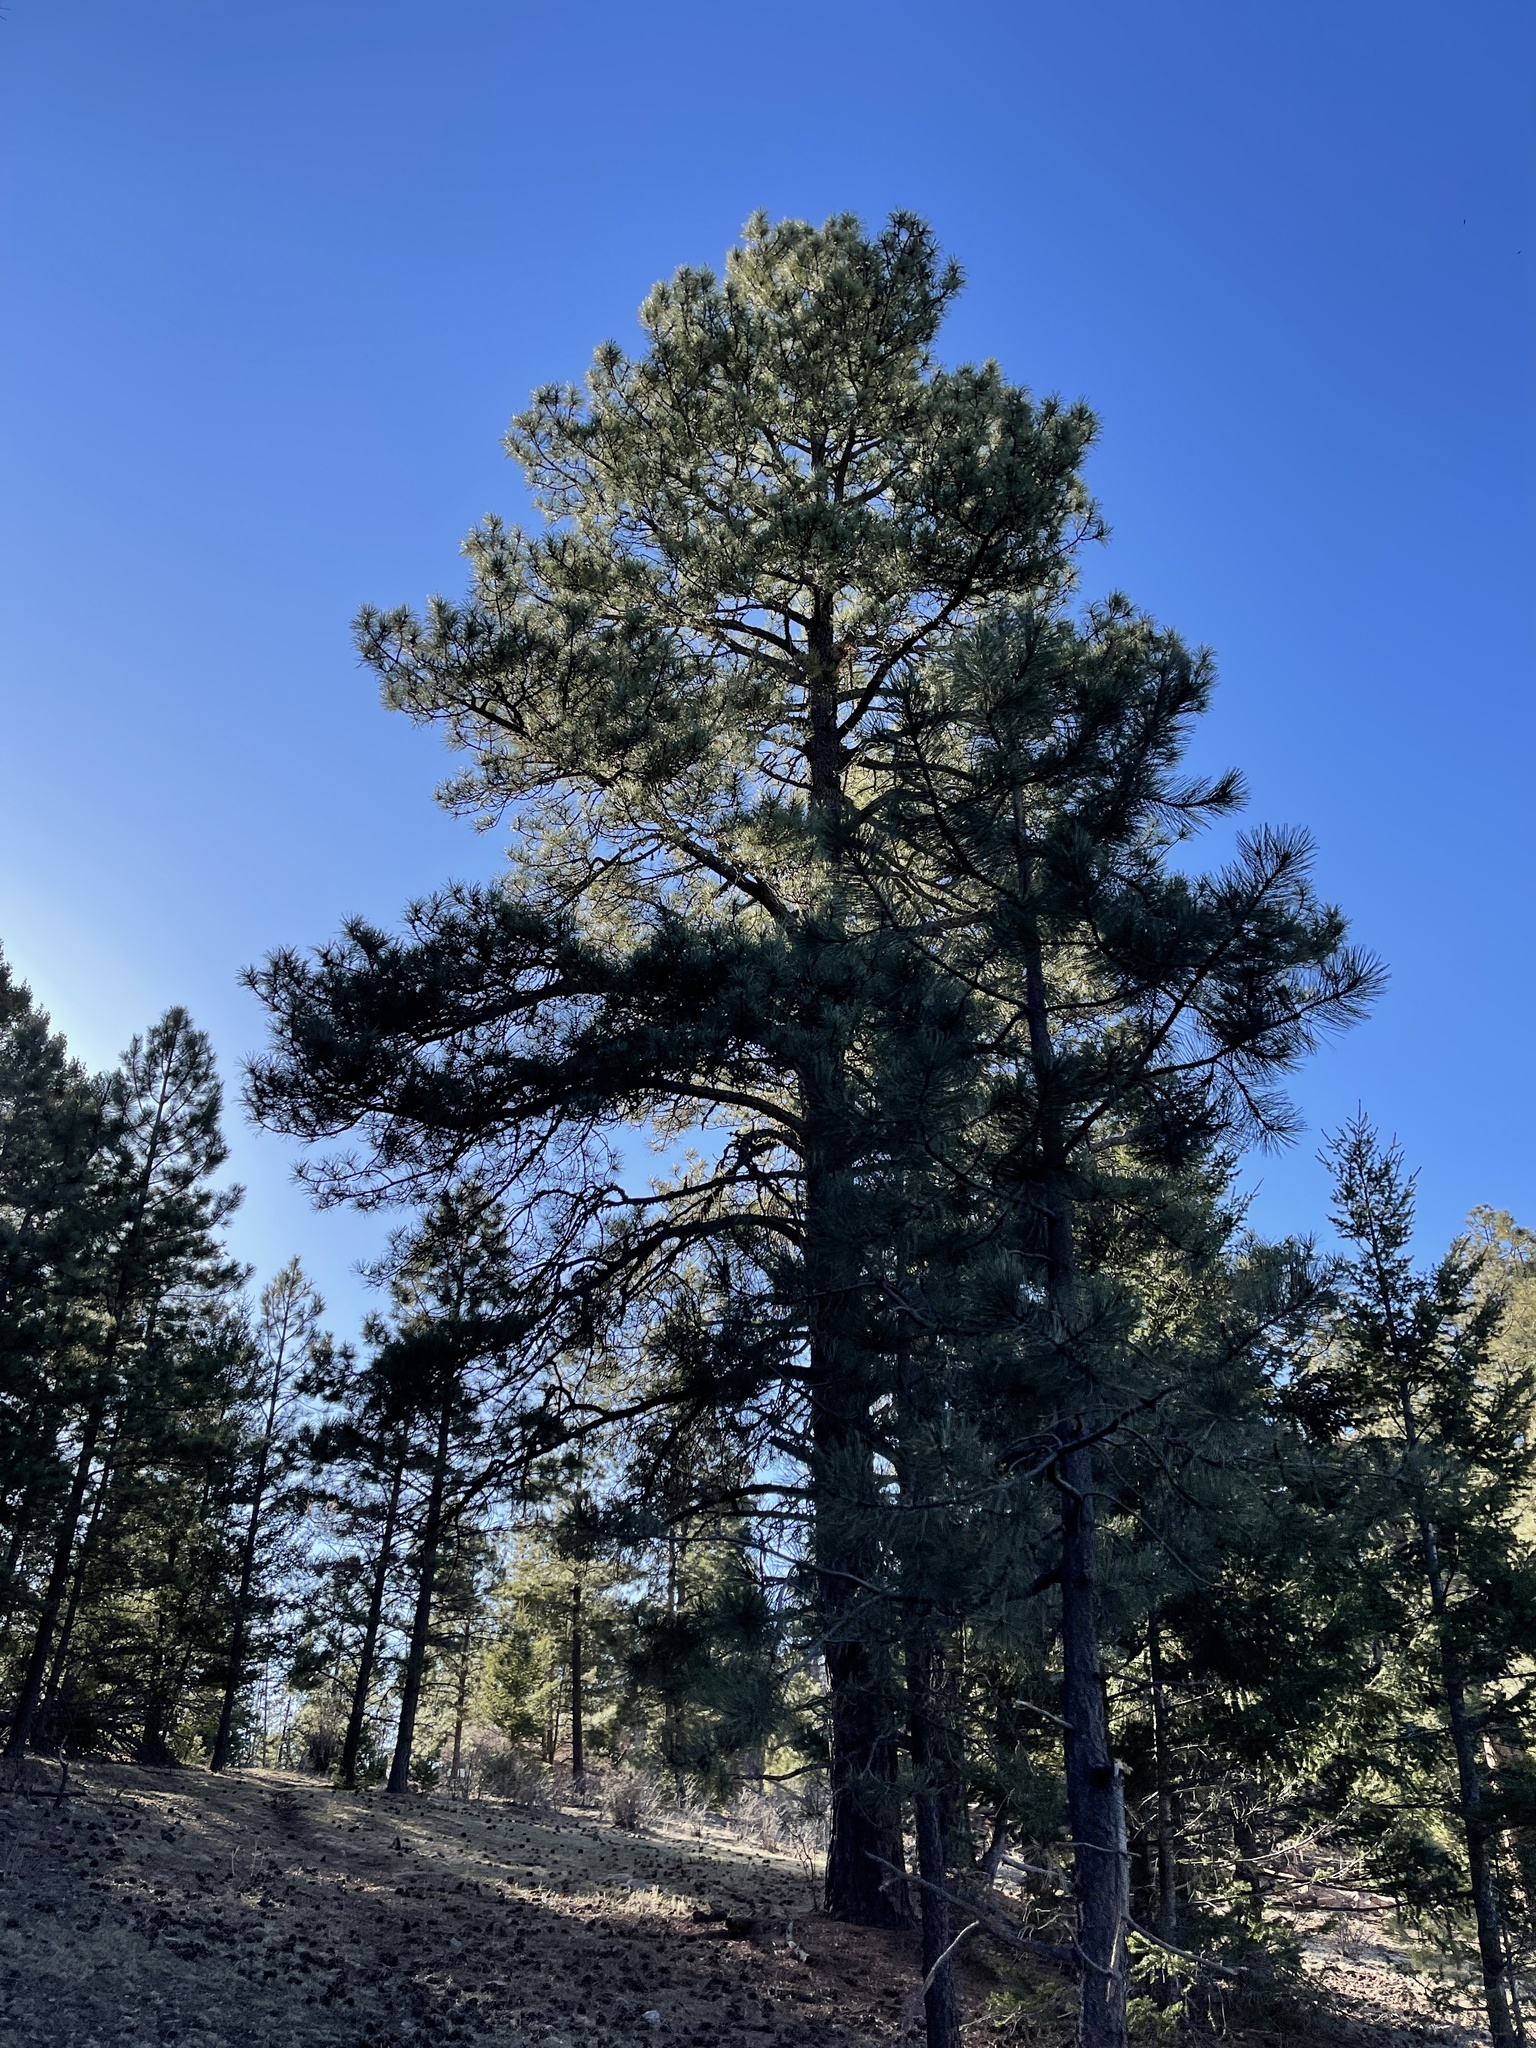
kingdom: Plantae
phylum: Tracheophyta
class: Pinopsida
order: Pinales
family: Pinaceae
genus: Pinus
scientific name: Pinus ponderosa
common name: Western yellow-pine
